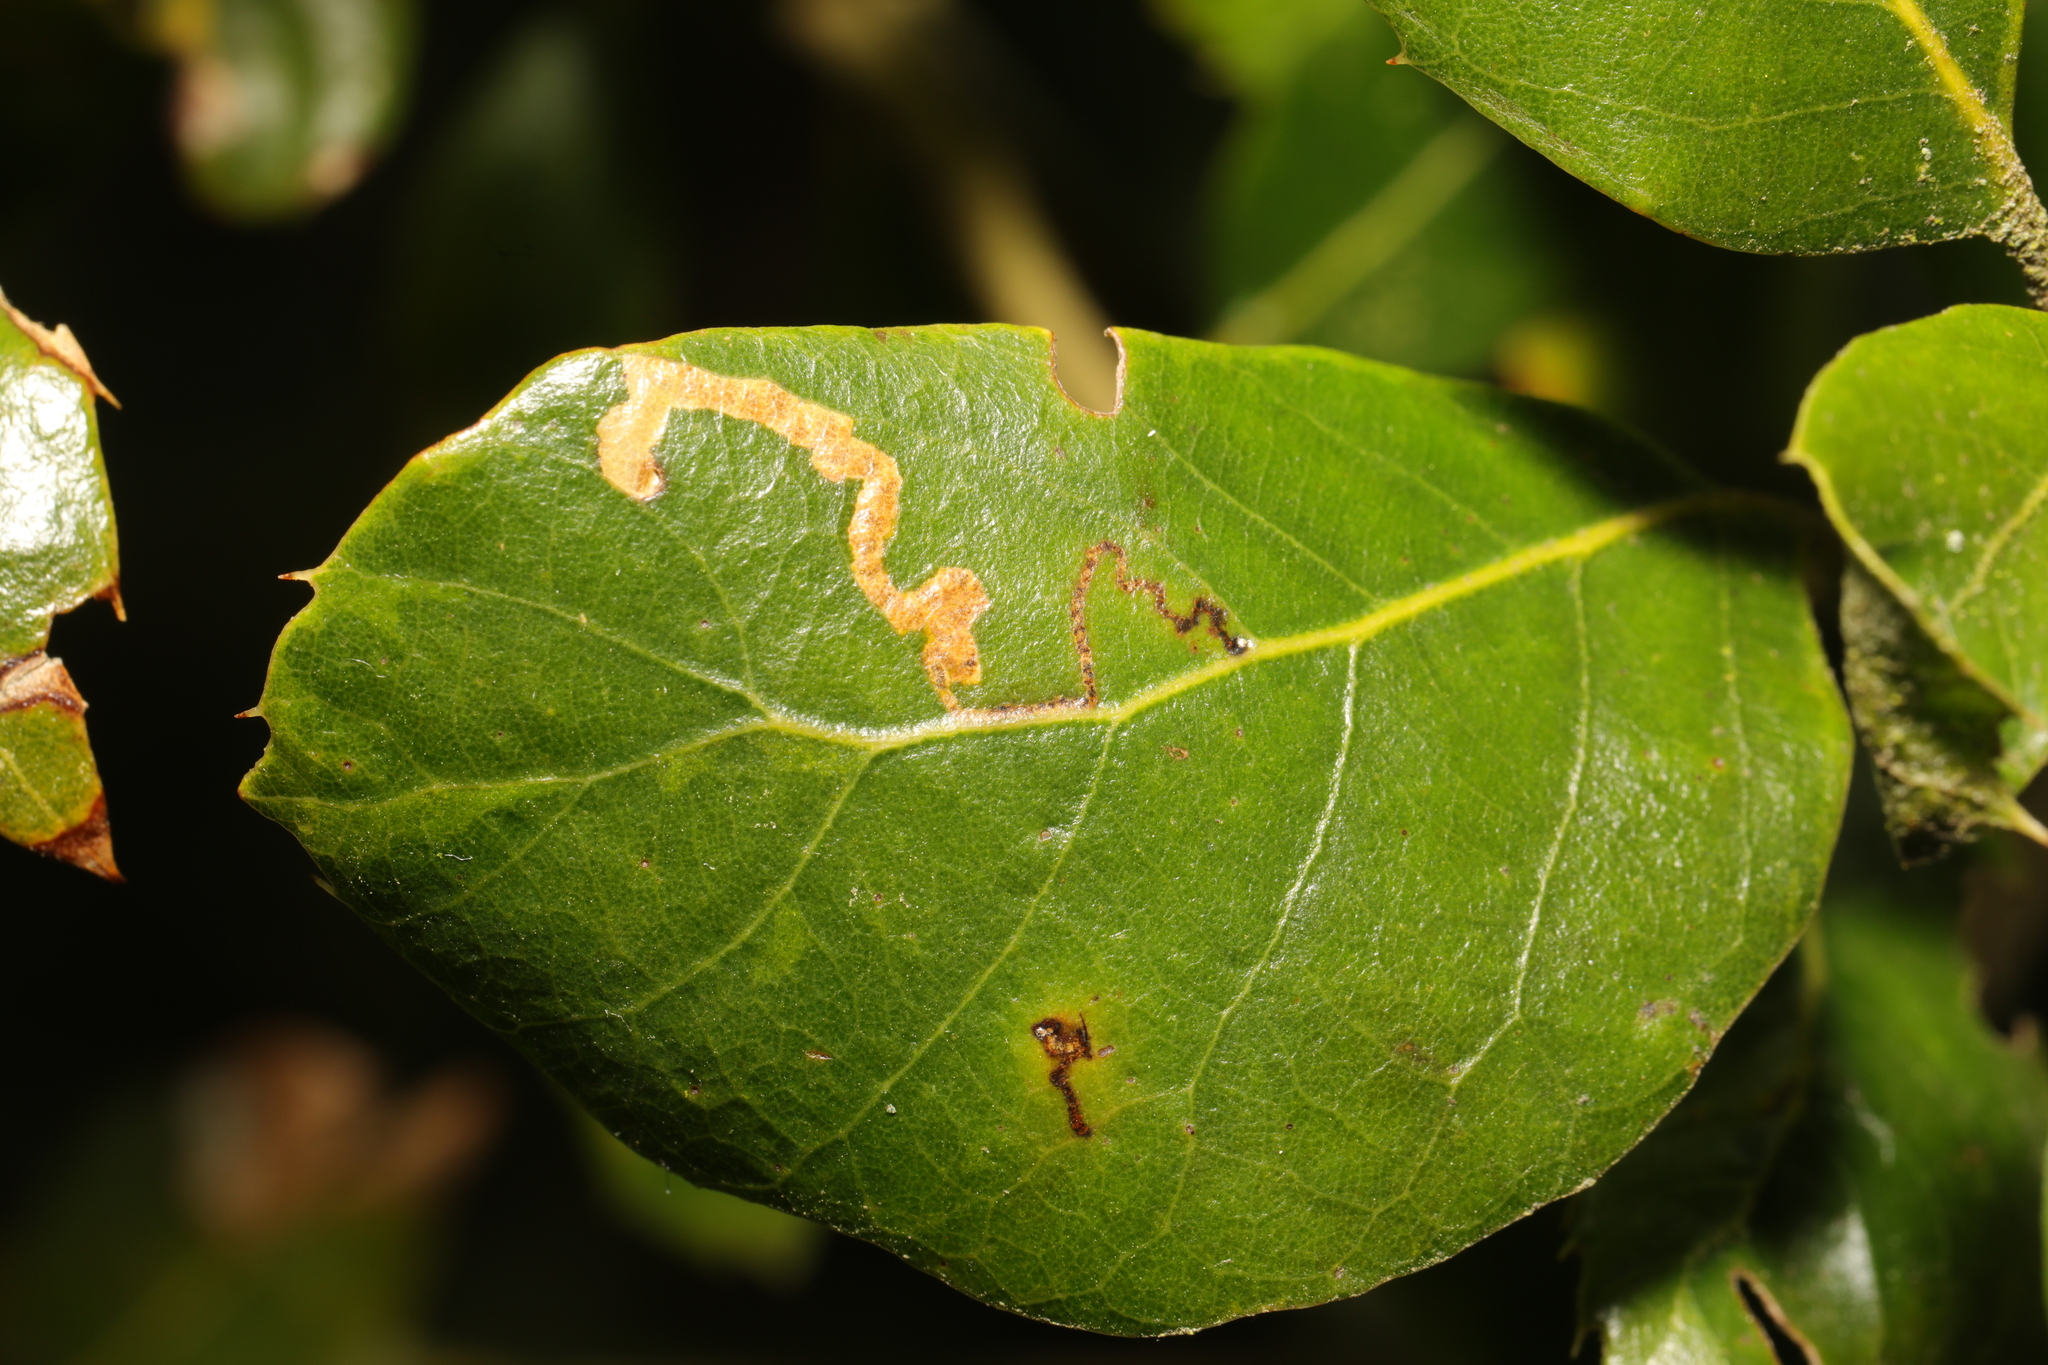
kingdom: Animalia
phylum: Arthropoda
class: Insecta
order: Lepidoptera
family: Nepticulidae
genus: Ectoedemia
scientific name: Ectoedemia heringella
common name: New holm-oak pigmy
